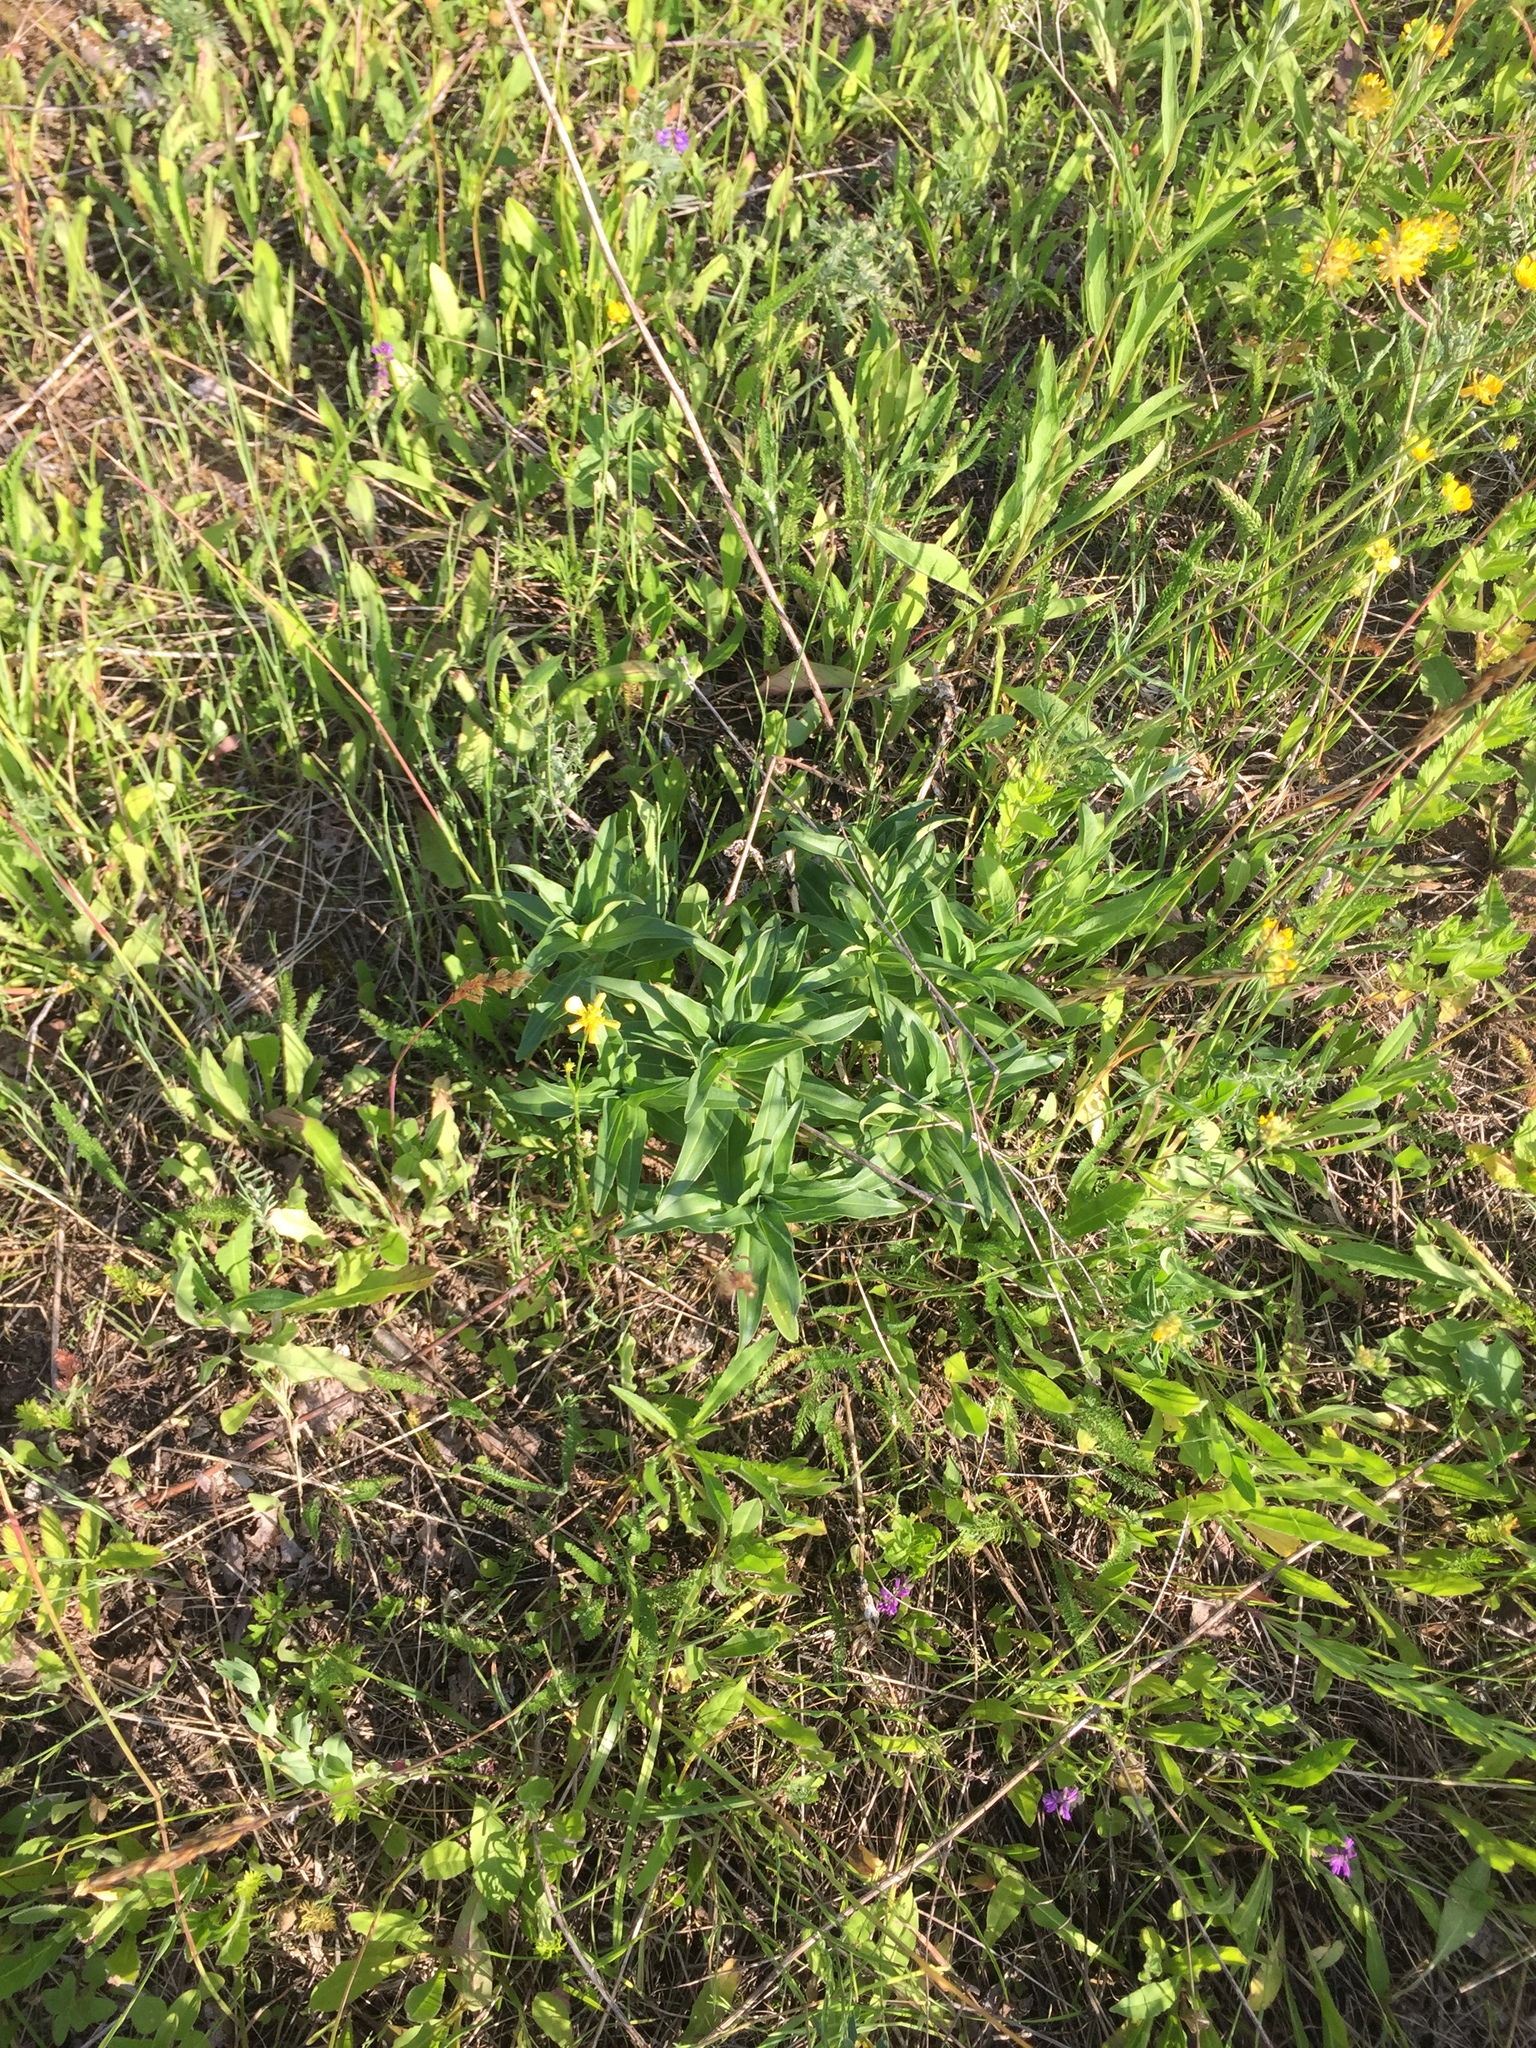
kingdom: Plantae
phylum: Tracheophyta
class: Magnoliopsida
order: Gentianales
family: Gentianaceae
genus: Gentiana
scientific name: Gentiana cruciata
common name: Cross gentian
